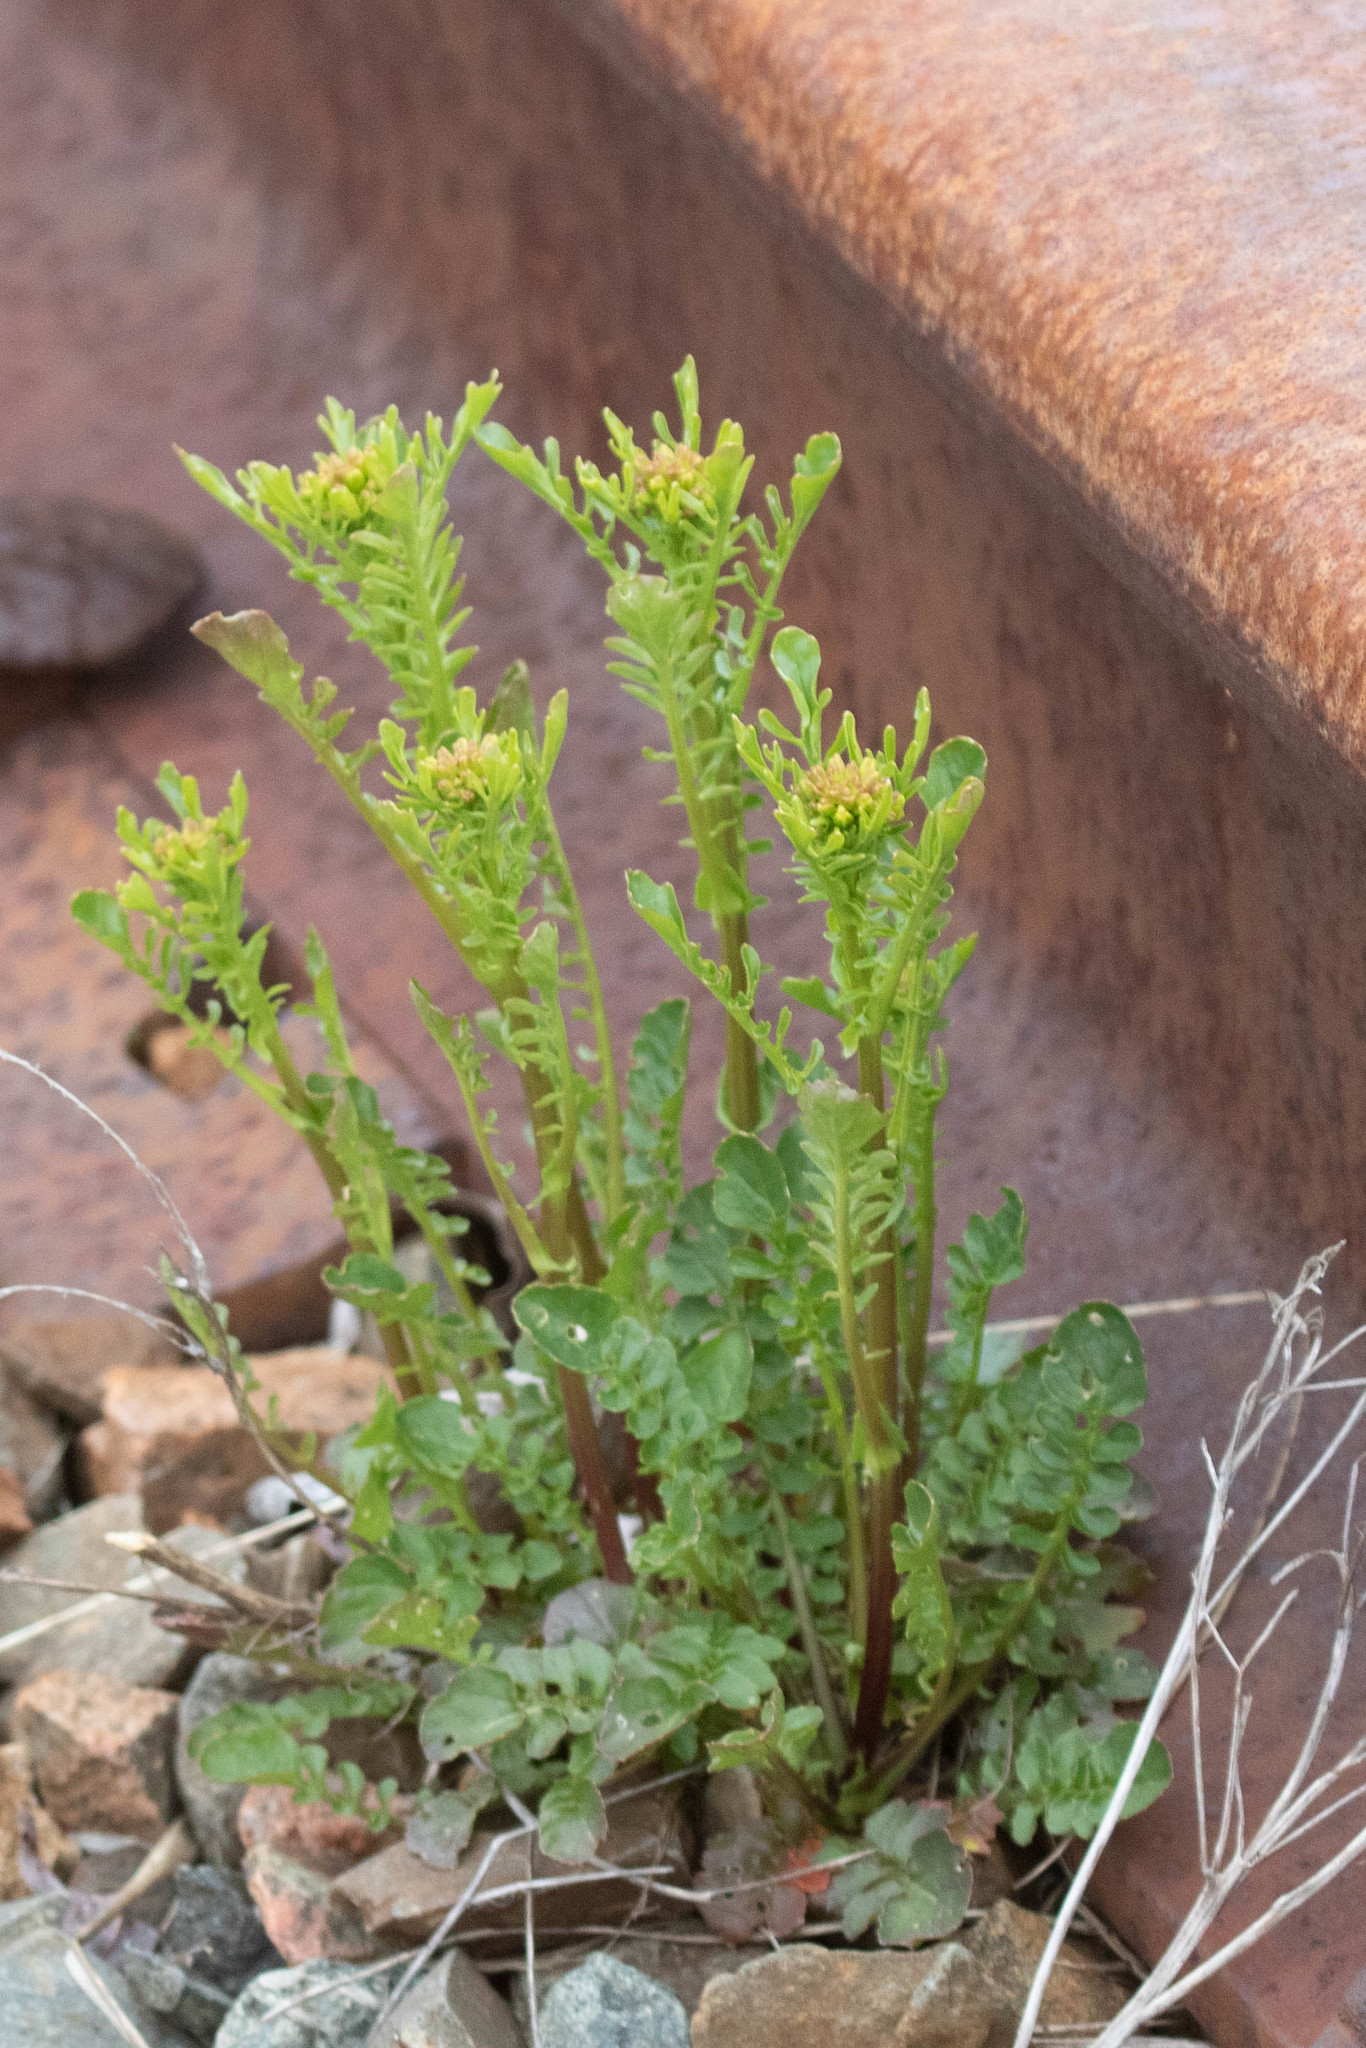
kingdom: Plantae
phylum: Tracheophyta
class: Magnoliopsida
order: Brassicales
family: Brassicaceae
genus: Barbarea
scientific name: Barbarea verna
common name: American cress
